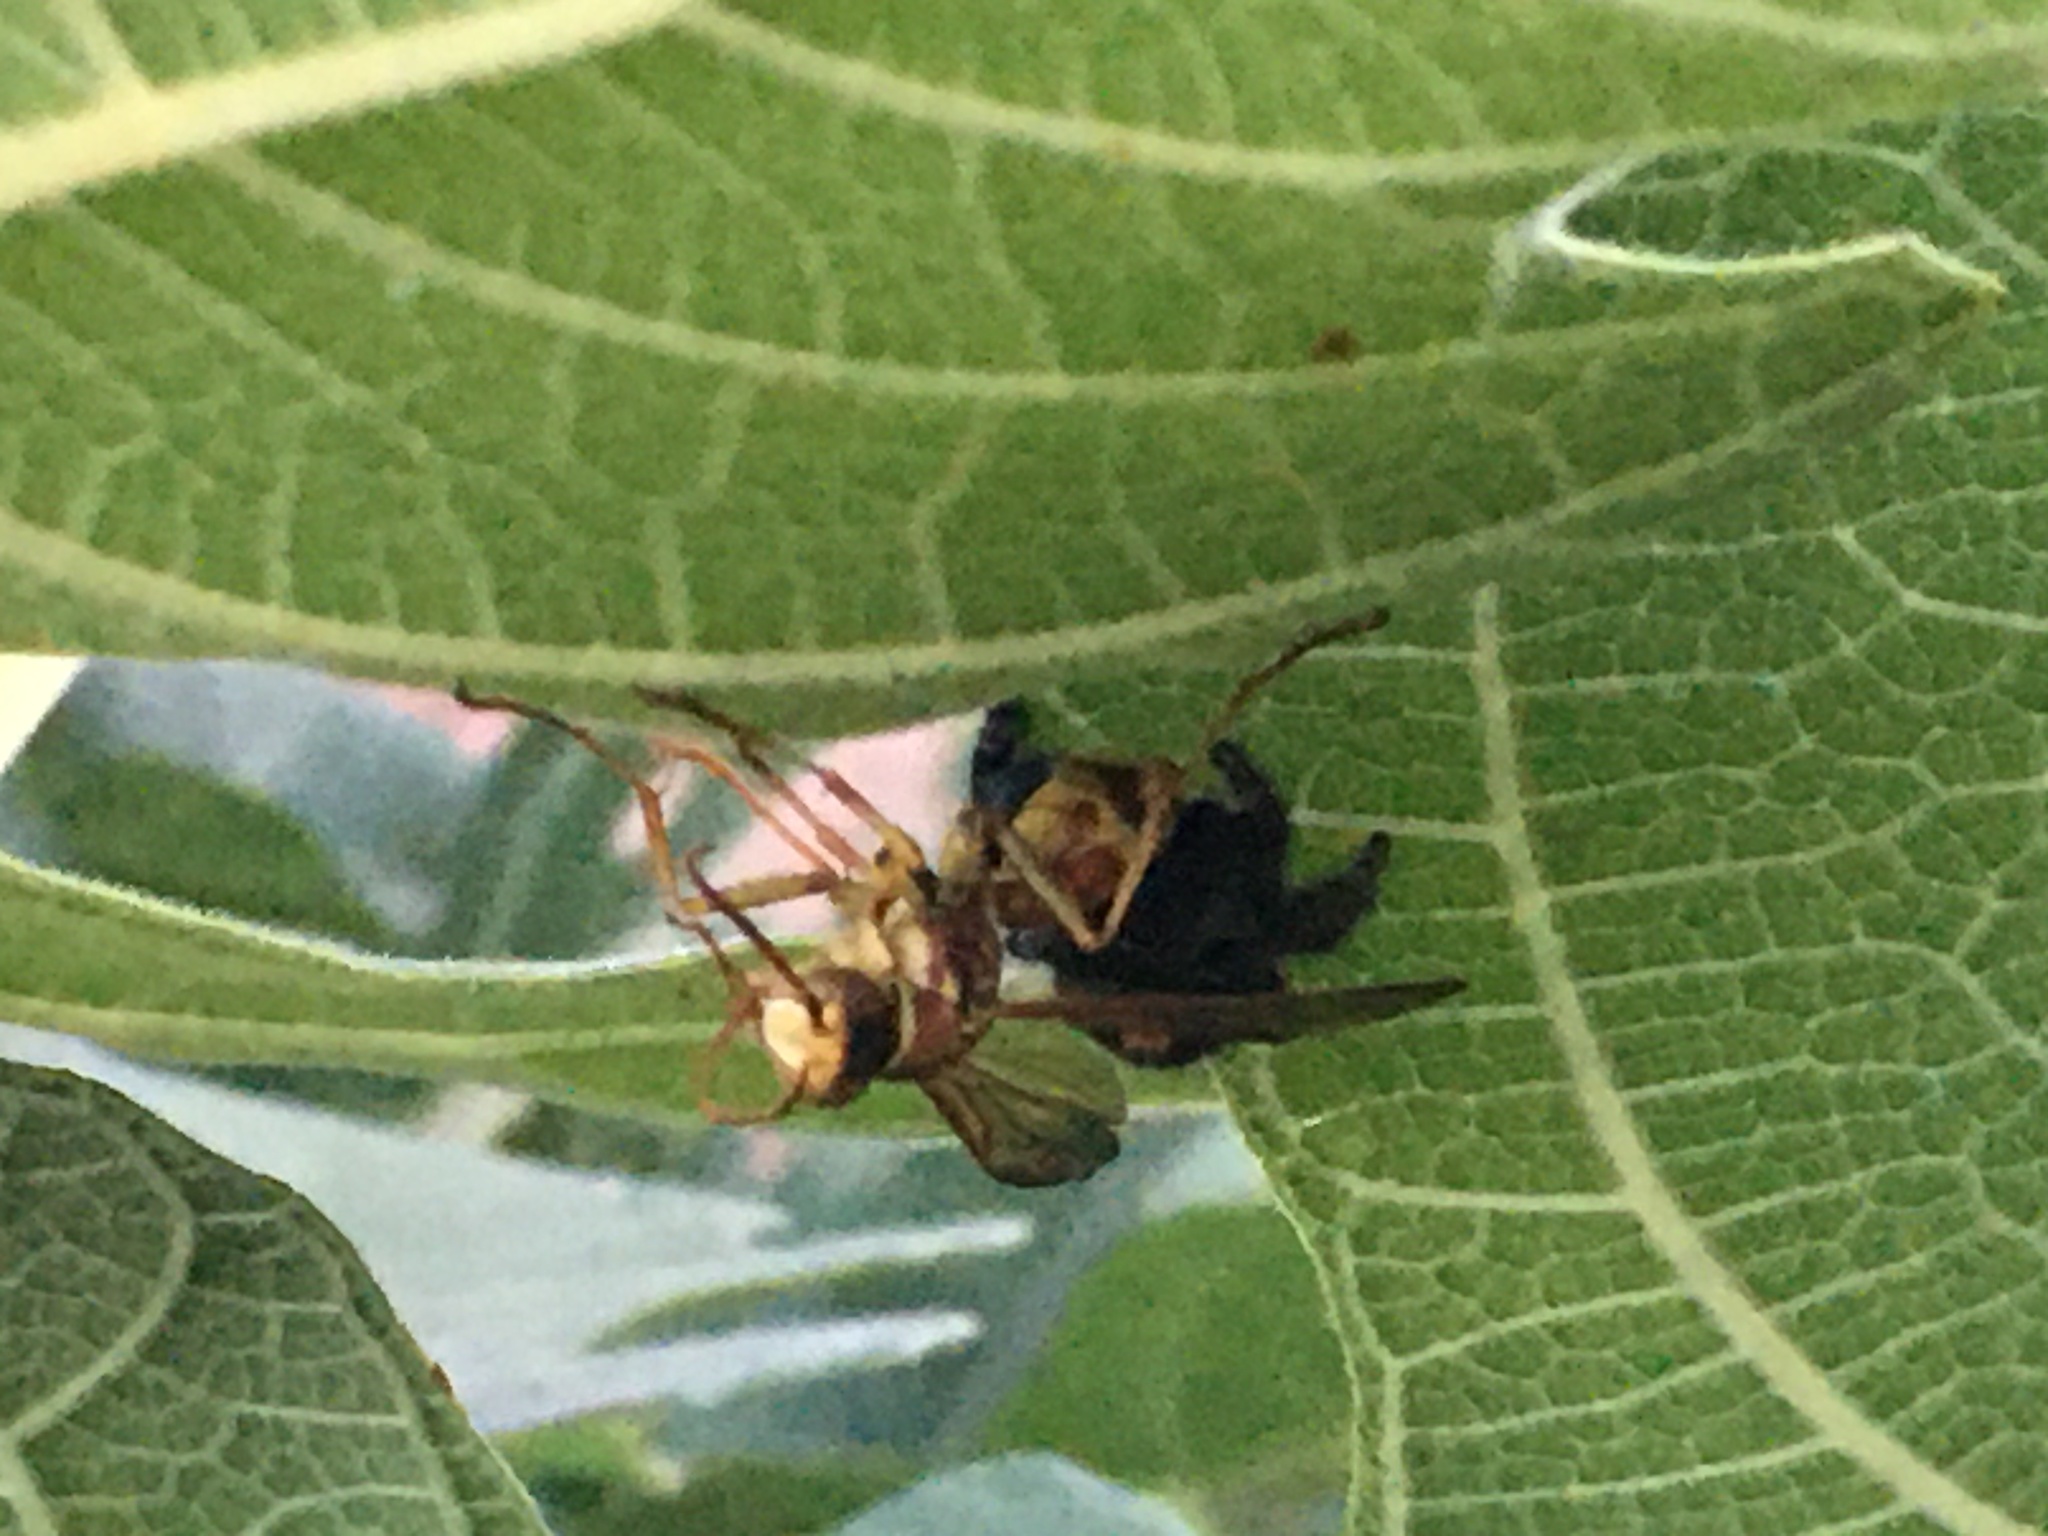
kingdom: Animalia
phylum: Arthropoda
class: Arachnida
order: Araneae
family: Salticidae
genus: Phidippus
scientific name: Phidippus audax
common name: Bold jumper
